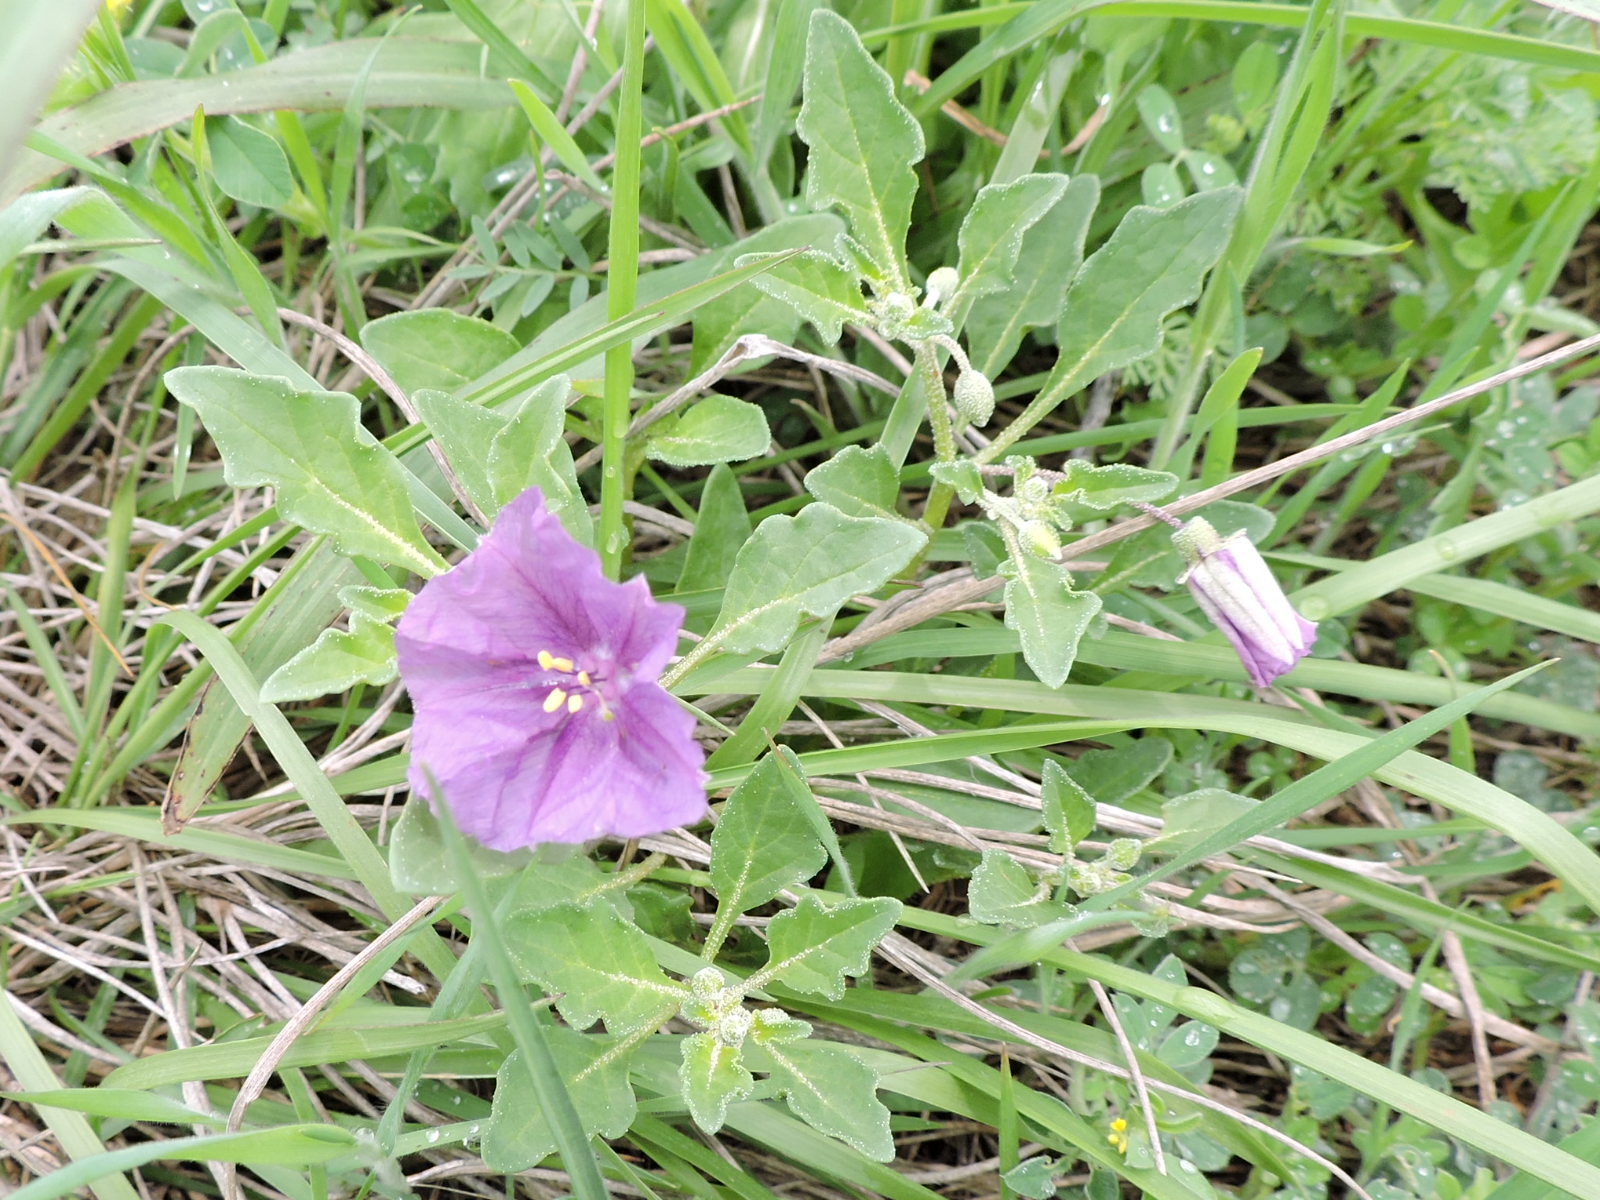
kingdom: Plantae
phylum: Tracheophyta
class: Magnoliopsida
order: Solanales
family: Solanaceae
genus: Quincula
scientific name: Quincula lobata
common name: Purple-ground-cherry
